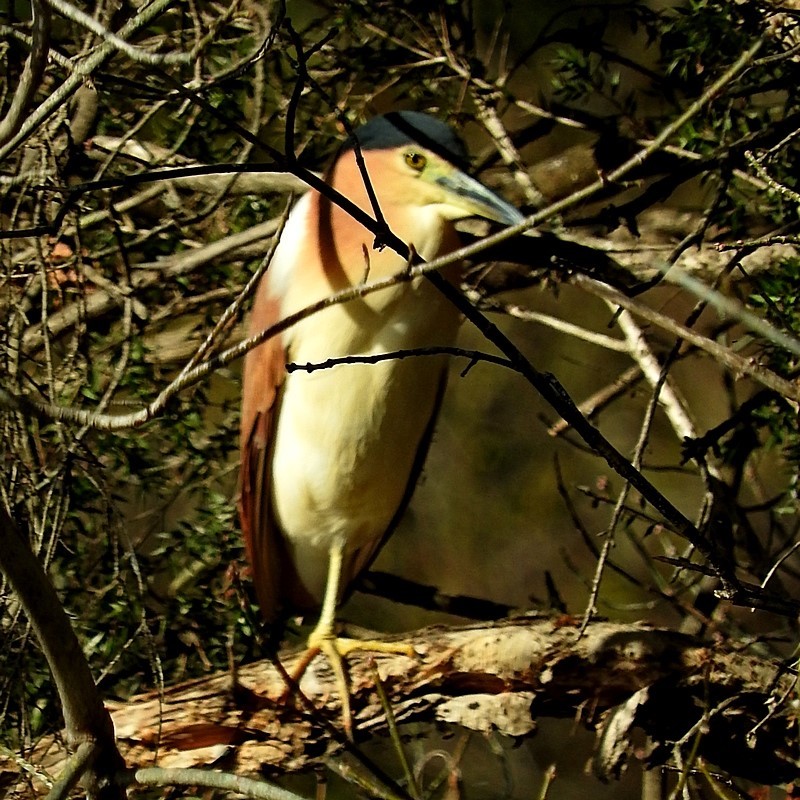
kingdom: Animalia
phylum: Chordata
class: Aves
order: Pelecaniformes
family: Ardeidae
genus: Nycticorax
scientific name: Nycticorax caledonicus
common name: Rufous night-heron
